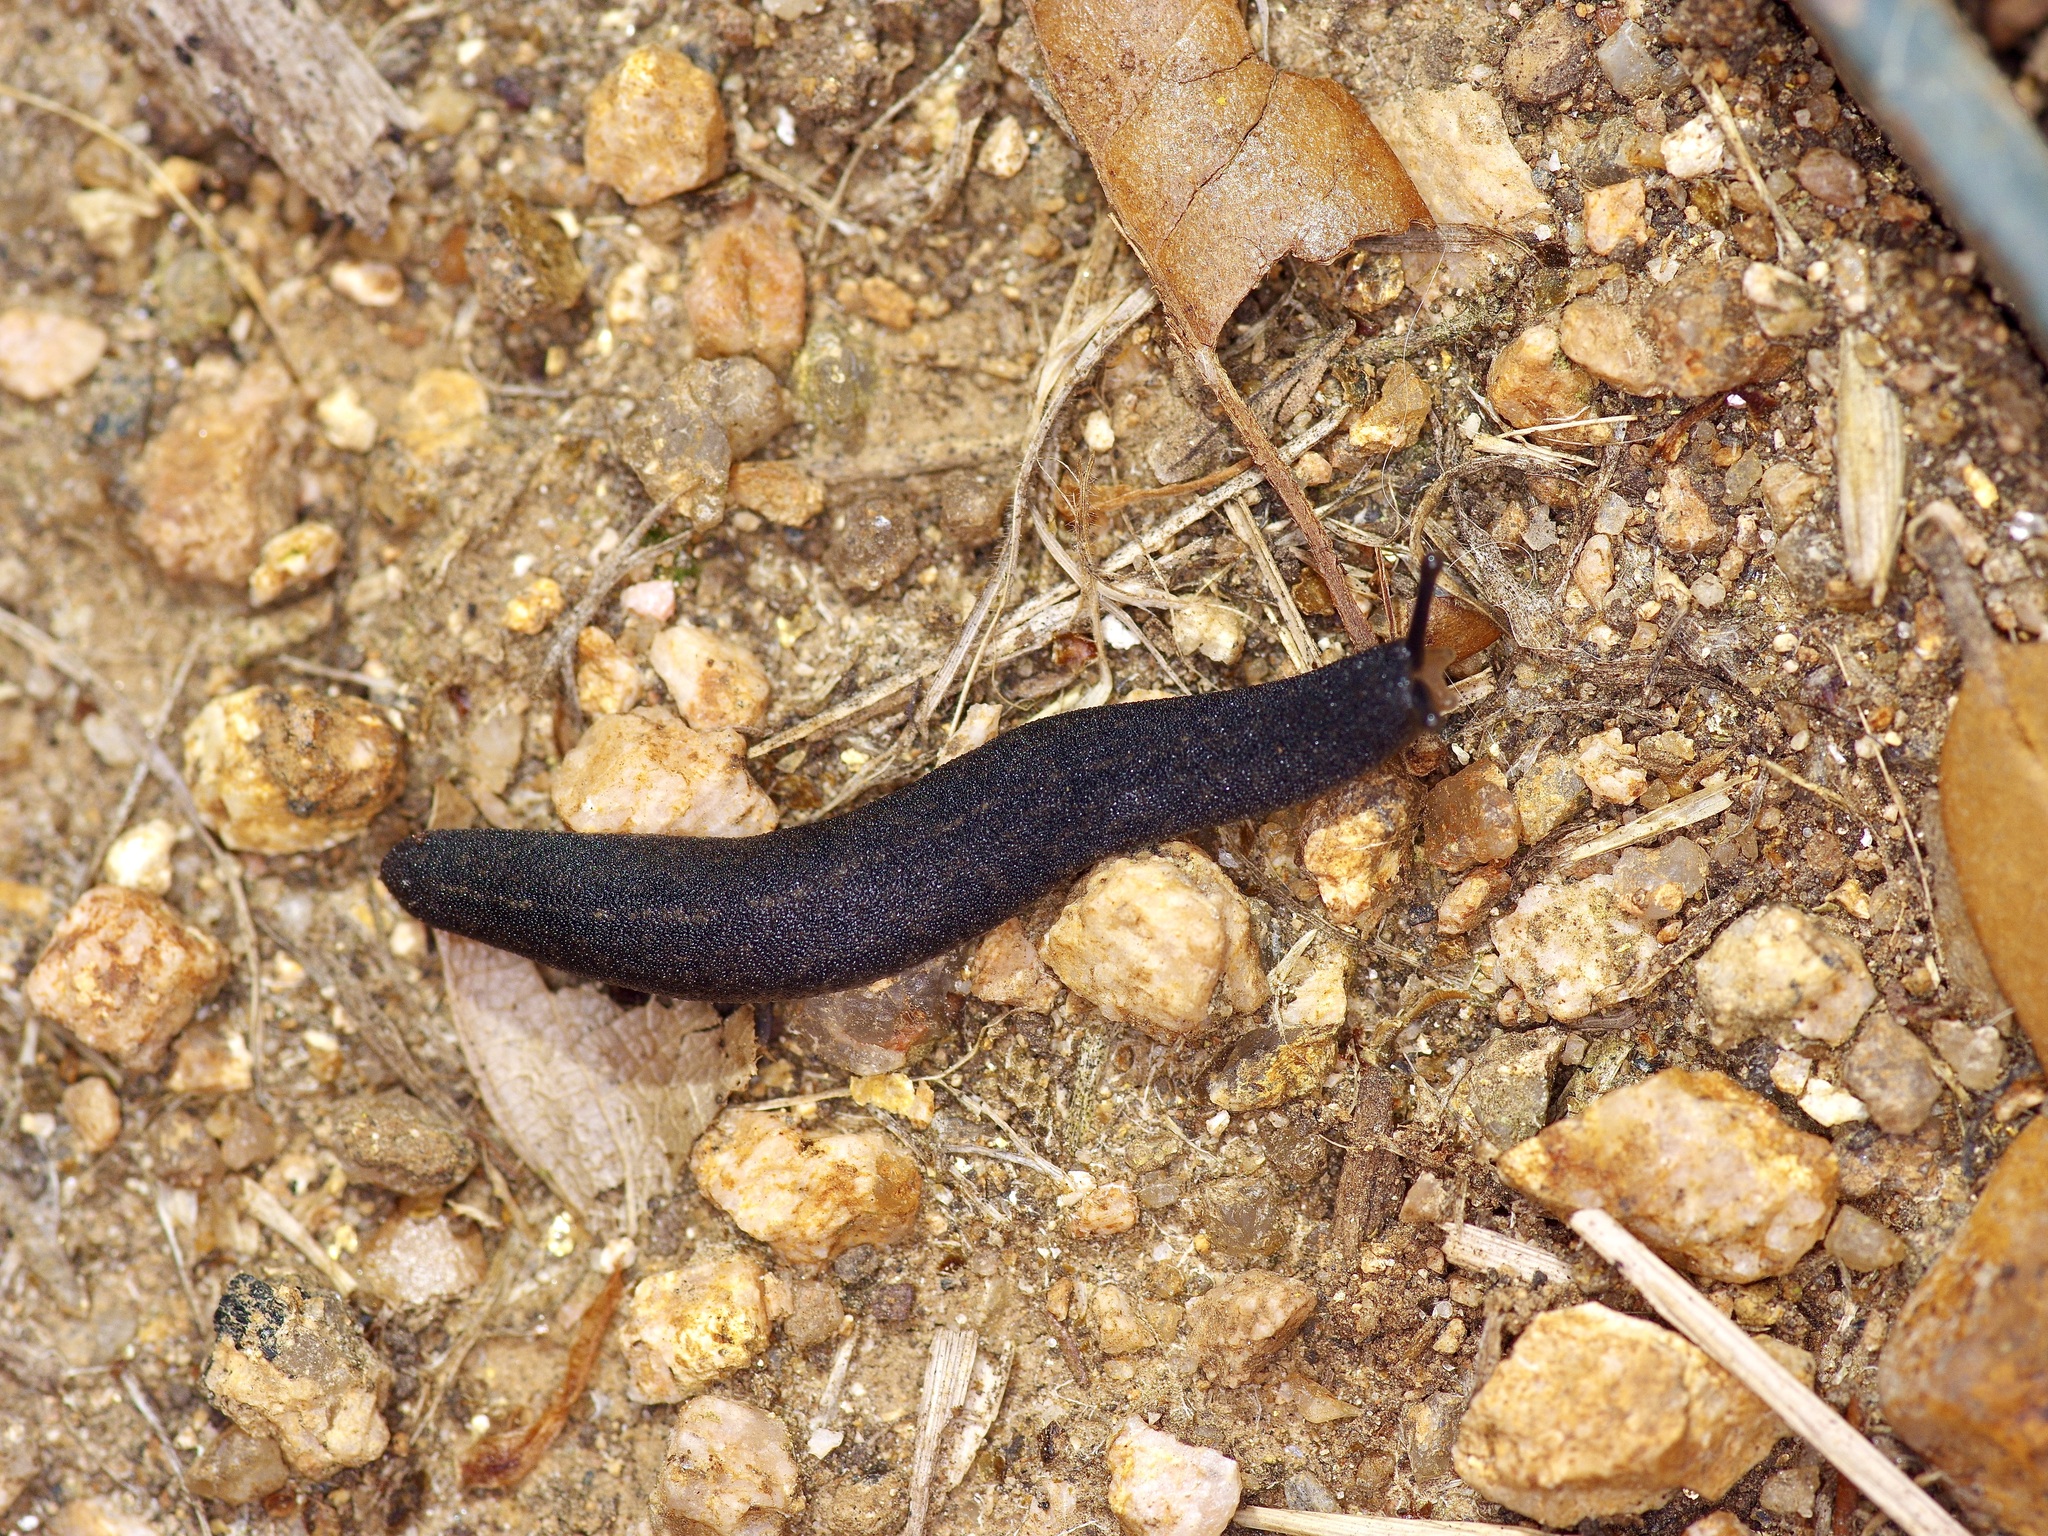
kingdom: Animalia
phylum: Mollusca
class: Gastropoda
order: Systellommatophora
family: Veronicellidae
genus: Belocaulus
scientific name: Belocaulus angustipes
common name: Black velvet leatherleaf slug
